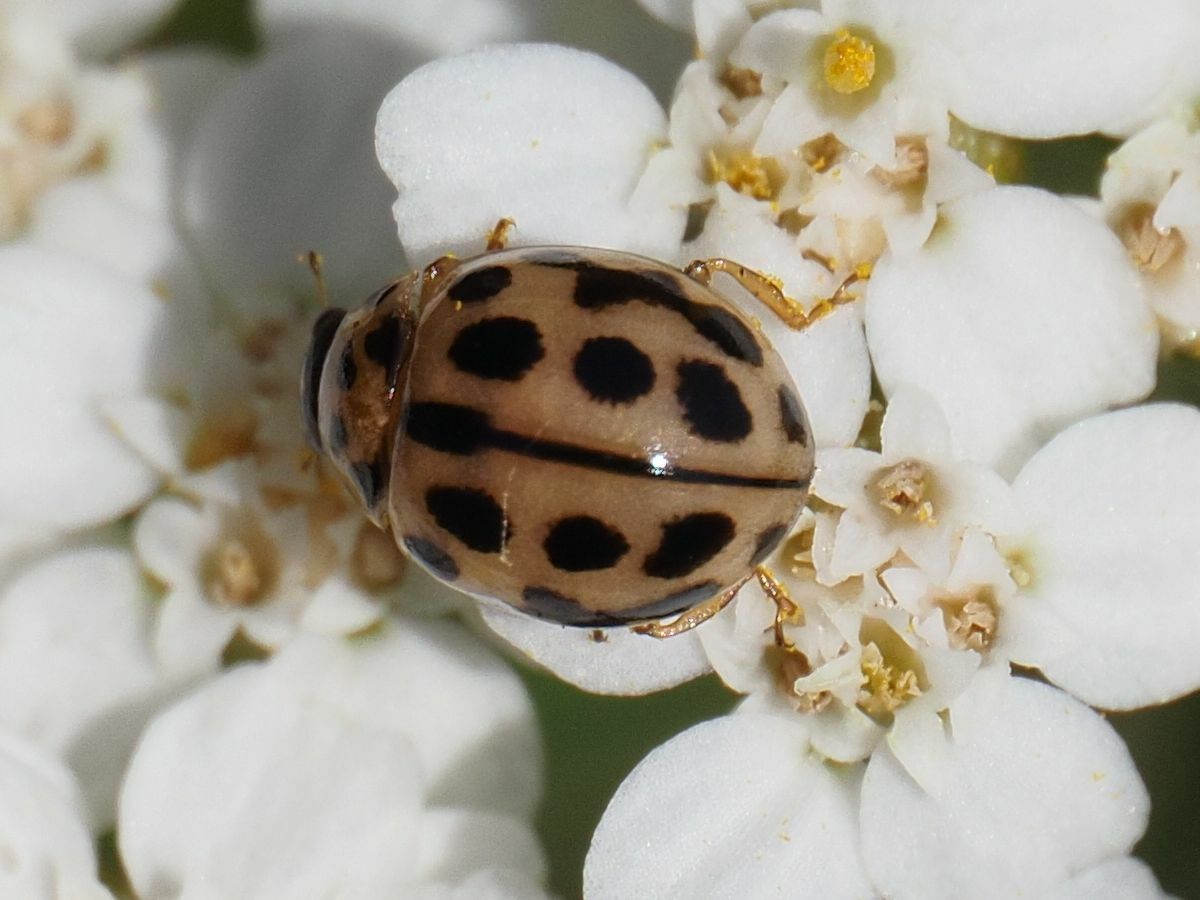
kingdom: Animalia
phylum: Arthropoda
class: Insecta
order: Coleoptera
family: Coccinellidae
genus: Tytthaspis
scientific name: Tytthaspis sedecimpunctata
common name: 16-spot ladybird
